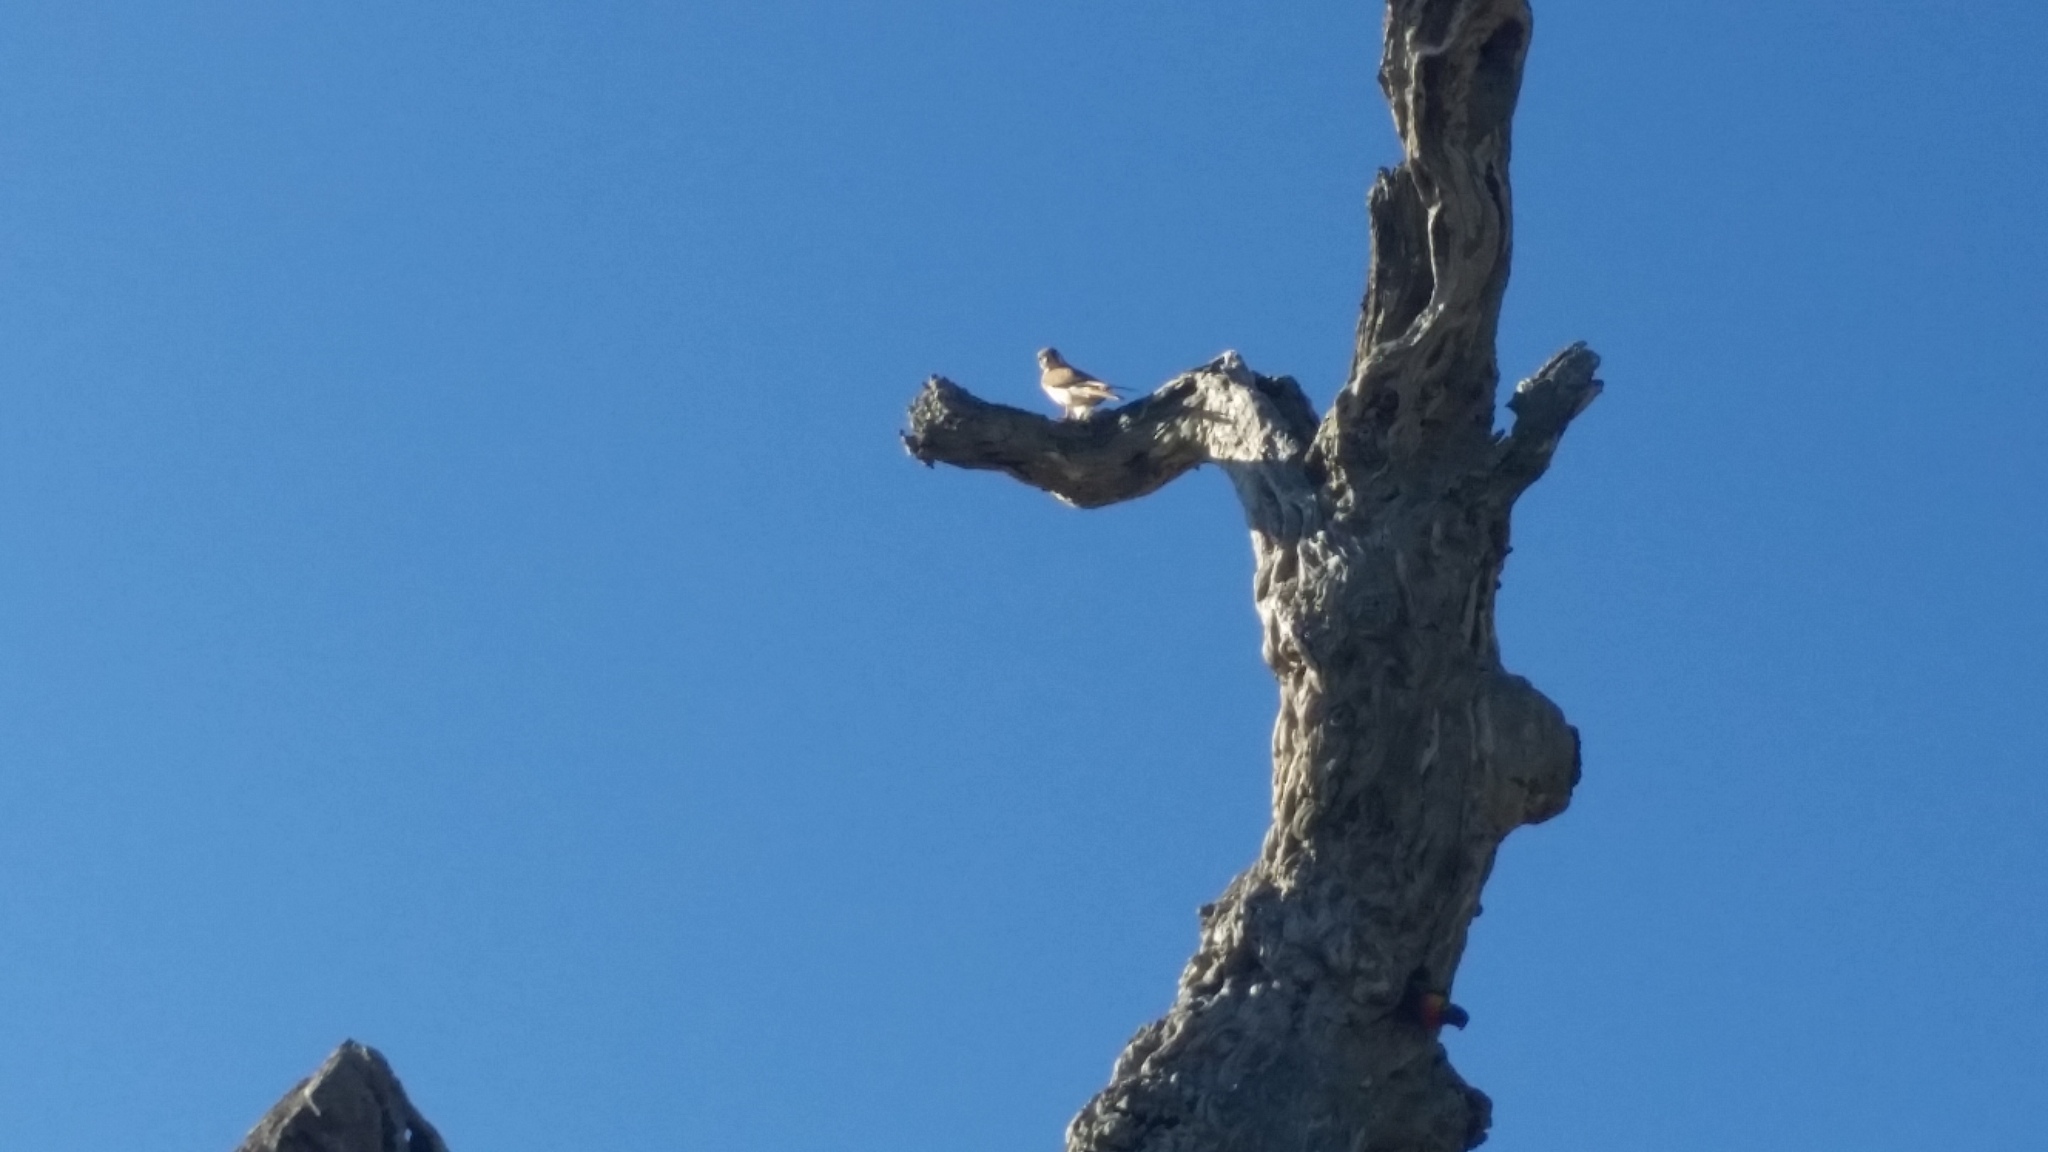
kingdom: Animalia
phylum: Chordata
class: Aves
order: Falconiformes
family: Falconidae
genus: Falco
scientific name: Falco cenchroides
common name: Nankeen kestrel
